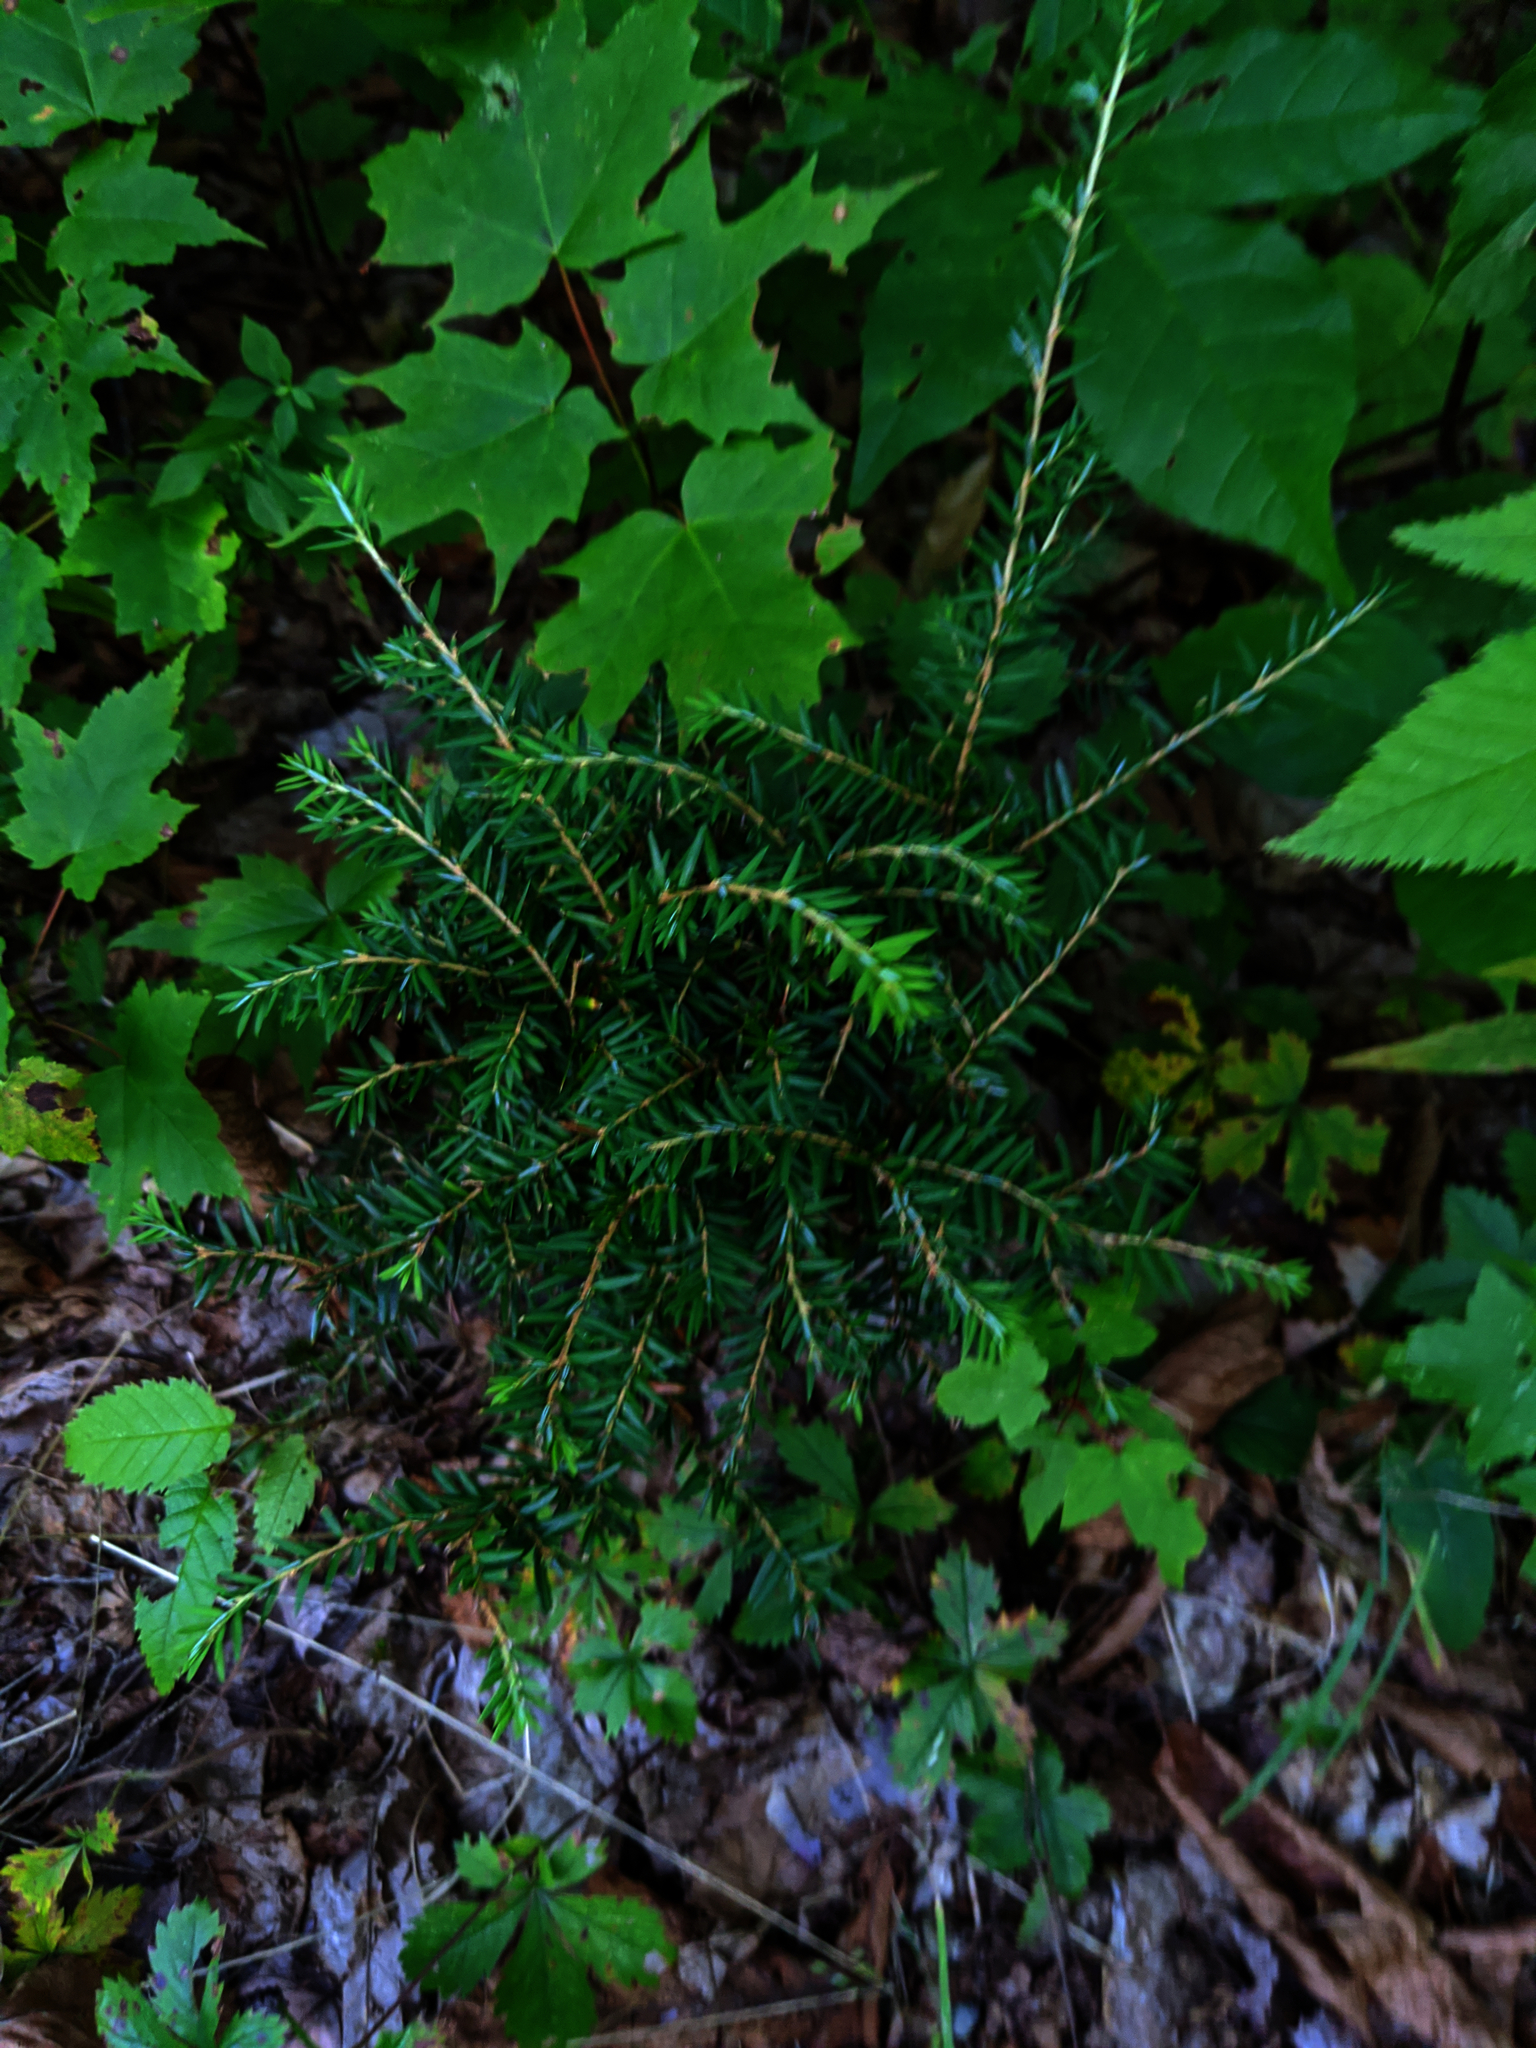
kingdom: Plantae
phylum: Tracheophyta
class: Pinopsida
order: Pinales
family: Pinaceae
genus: Tsuga
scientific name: Tsuga canadensis
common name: Eastern hemlock
